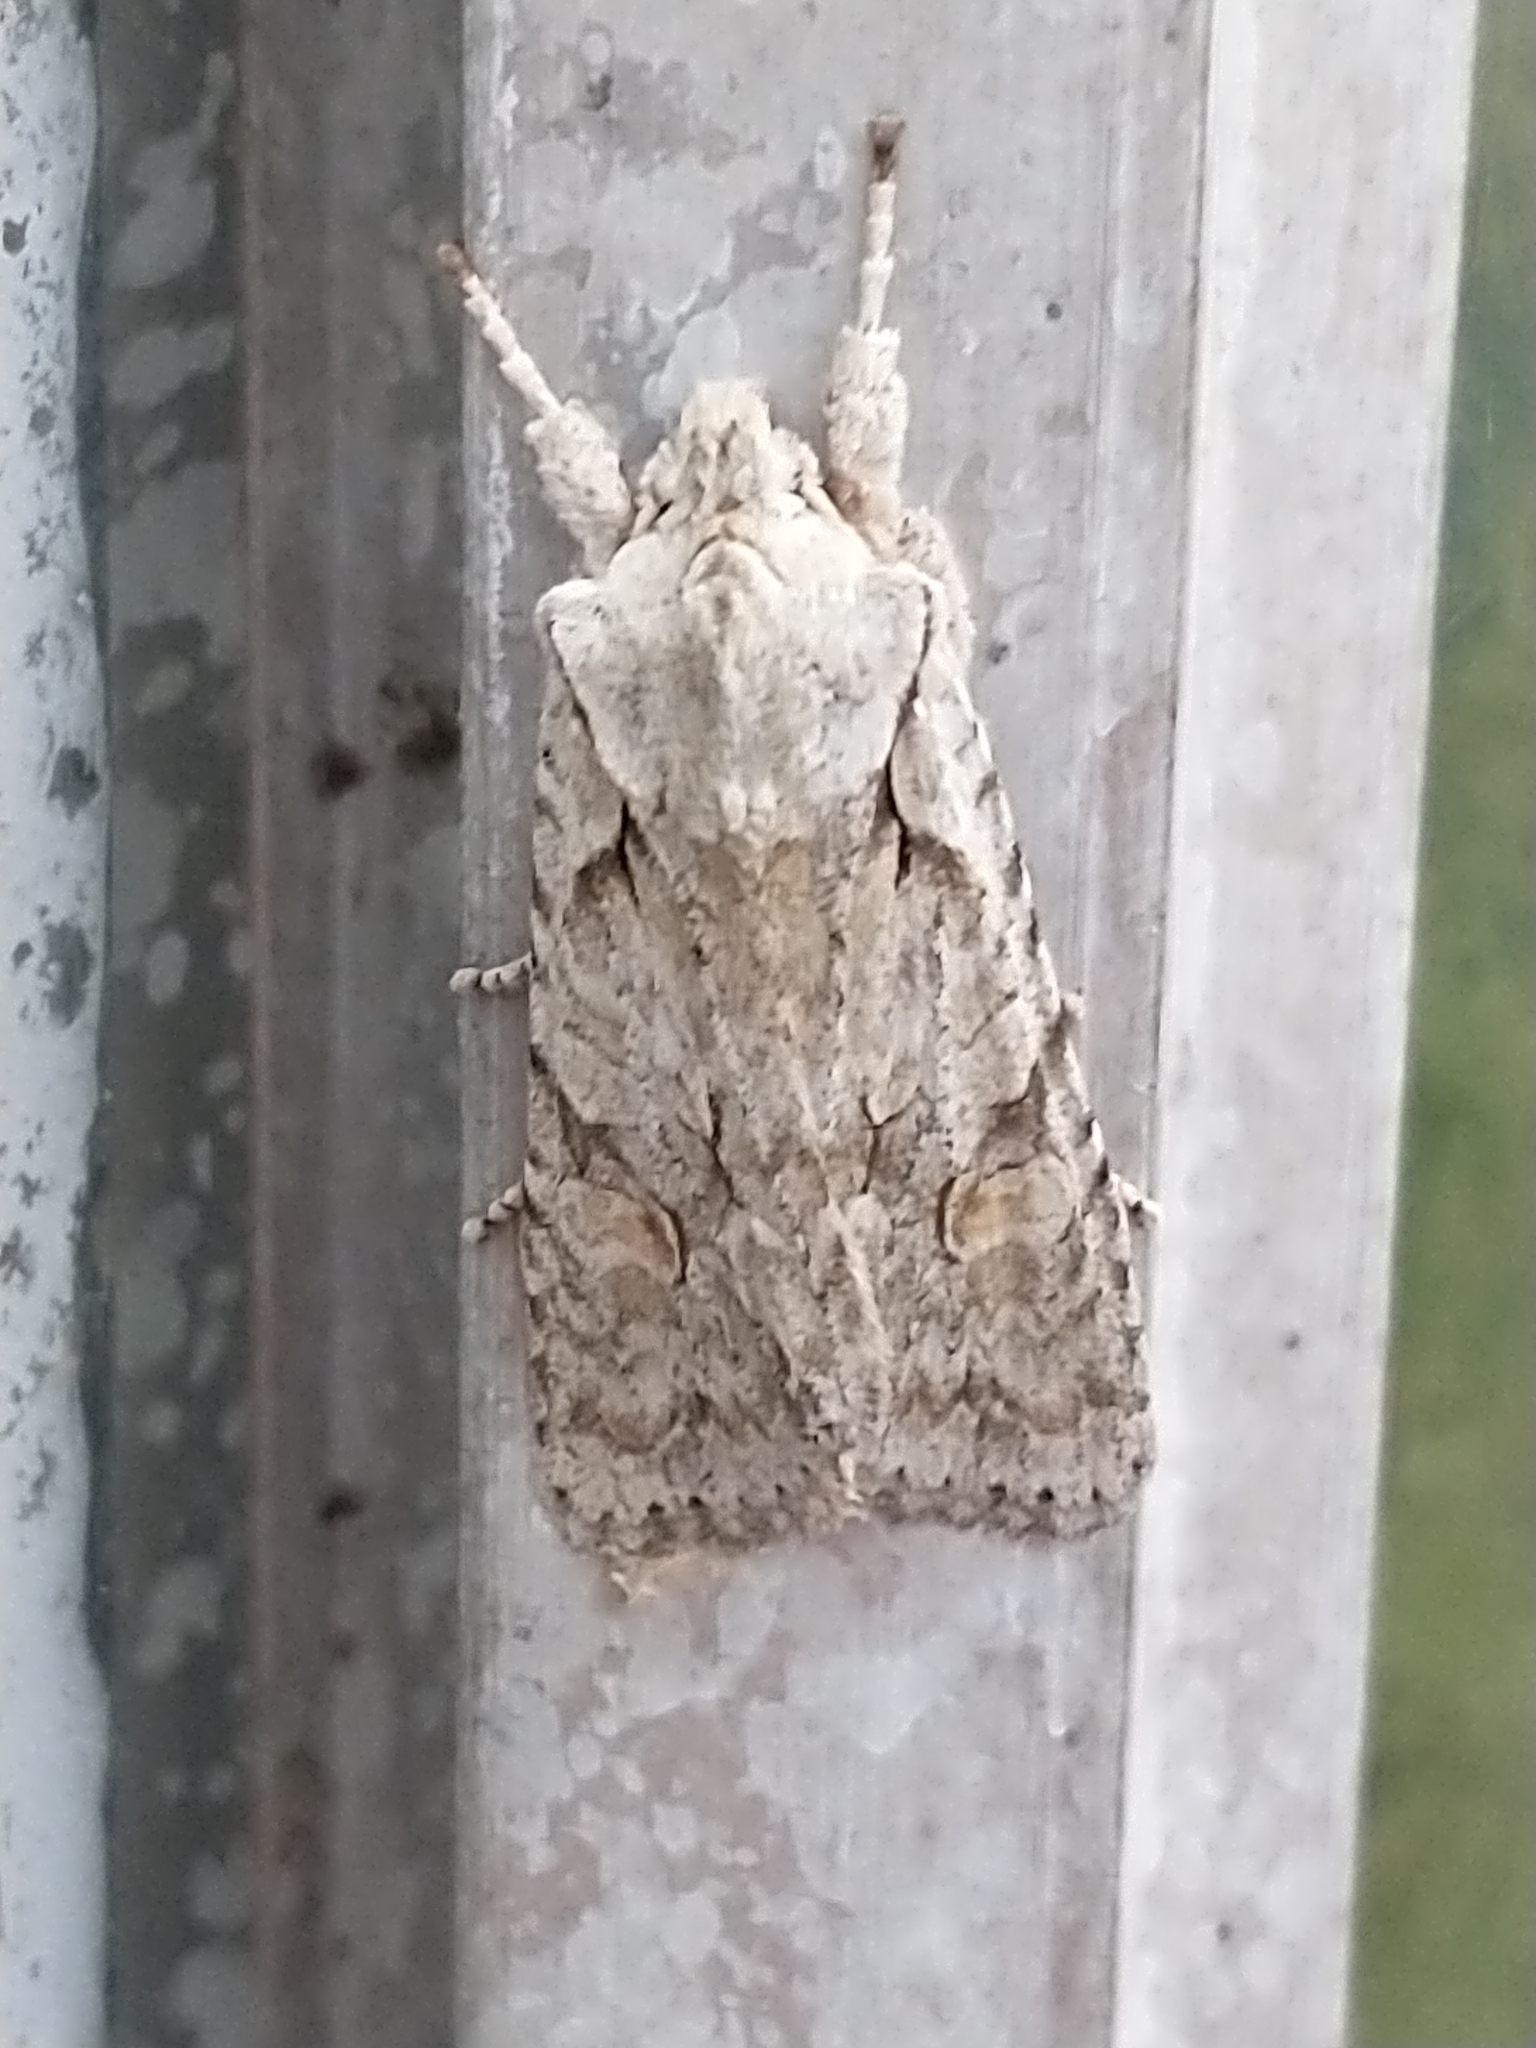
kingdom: Animalia
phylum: Arthropoda
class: Insecta
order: Lepidoptera
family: Noctuidae
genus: Lithophane
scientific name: Lithophane ornitopus
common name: Grey shoulder-knot
